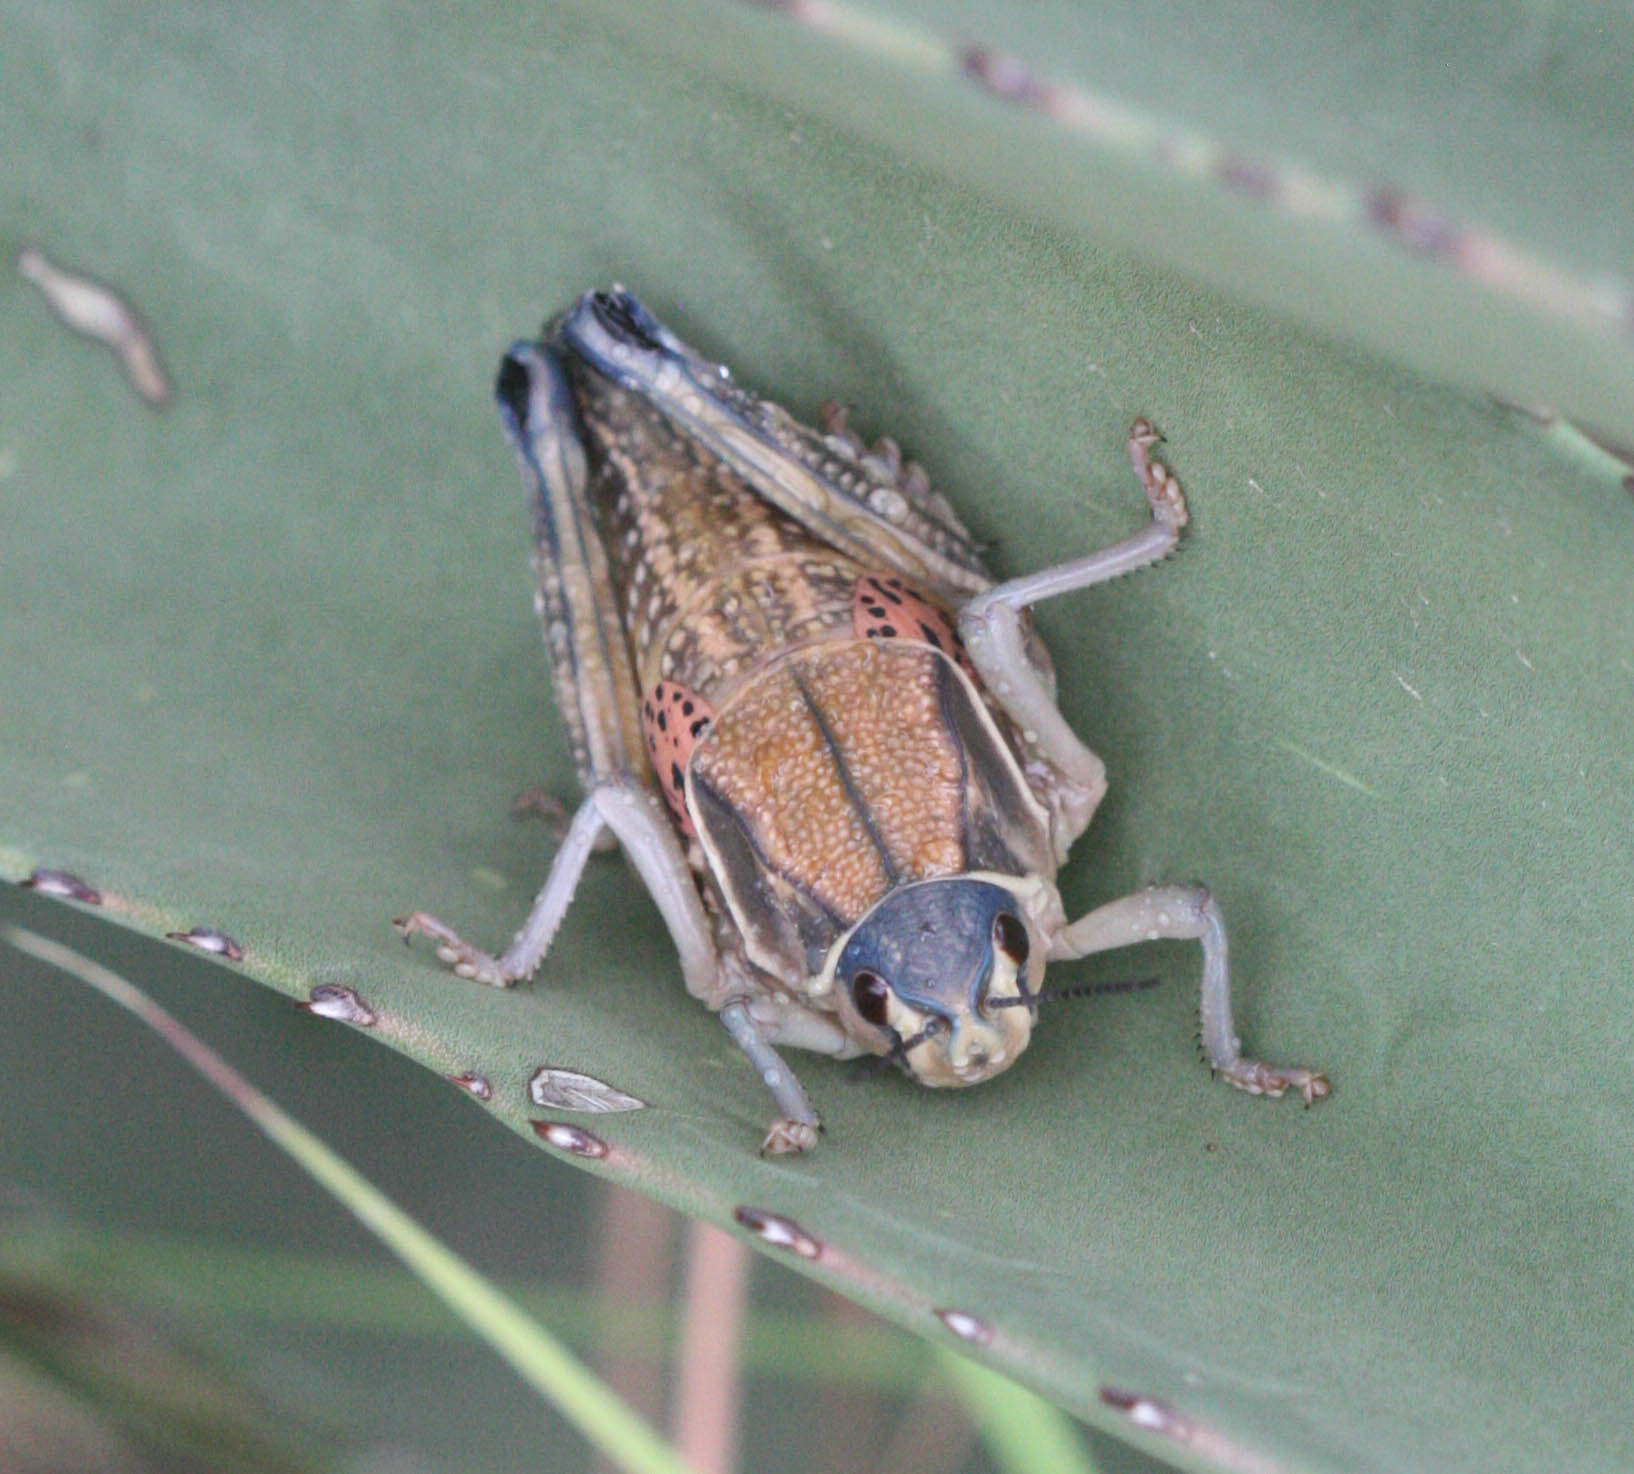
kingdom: Animalia
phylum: Arthropoda
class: Insecta
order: Orthoptera
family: Romaleidae
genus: Brachystola
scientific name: Brachystola magna
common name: Plains lubber grasshopper
